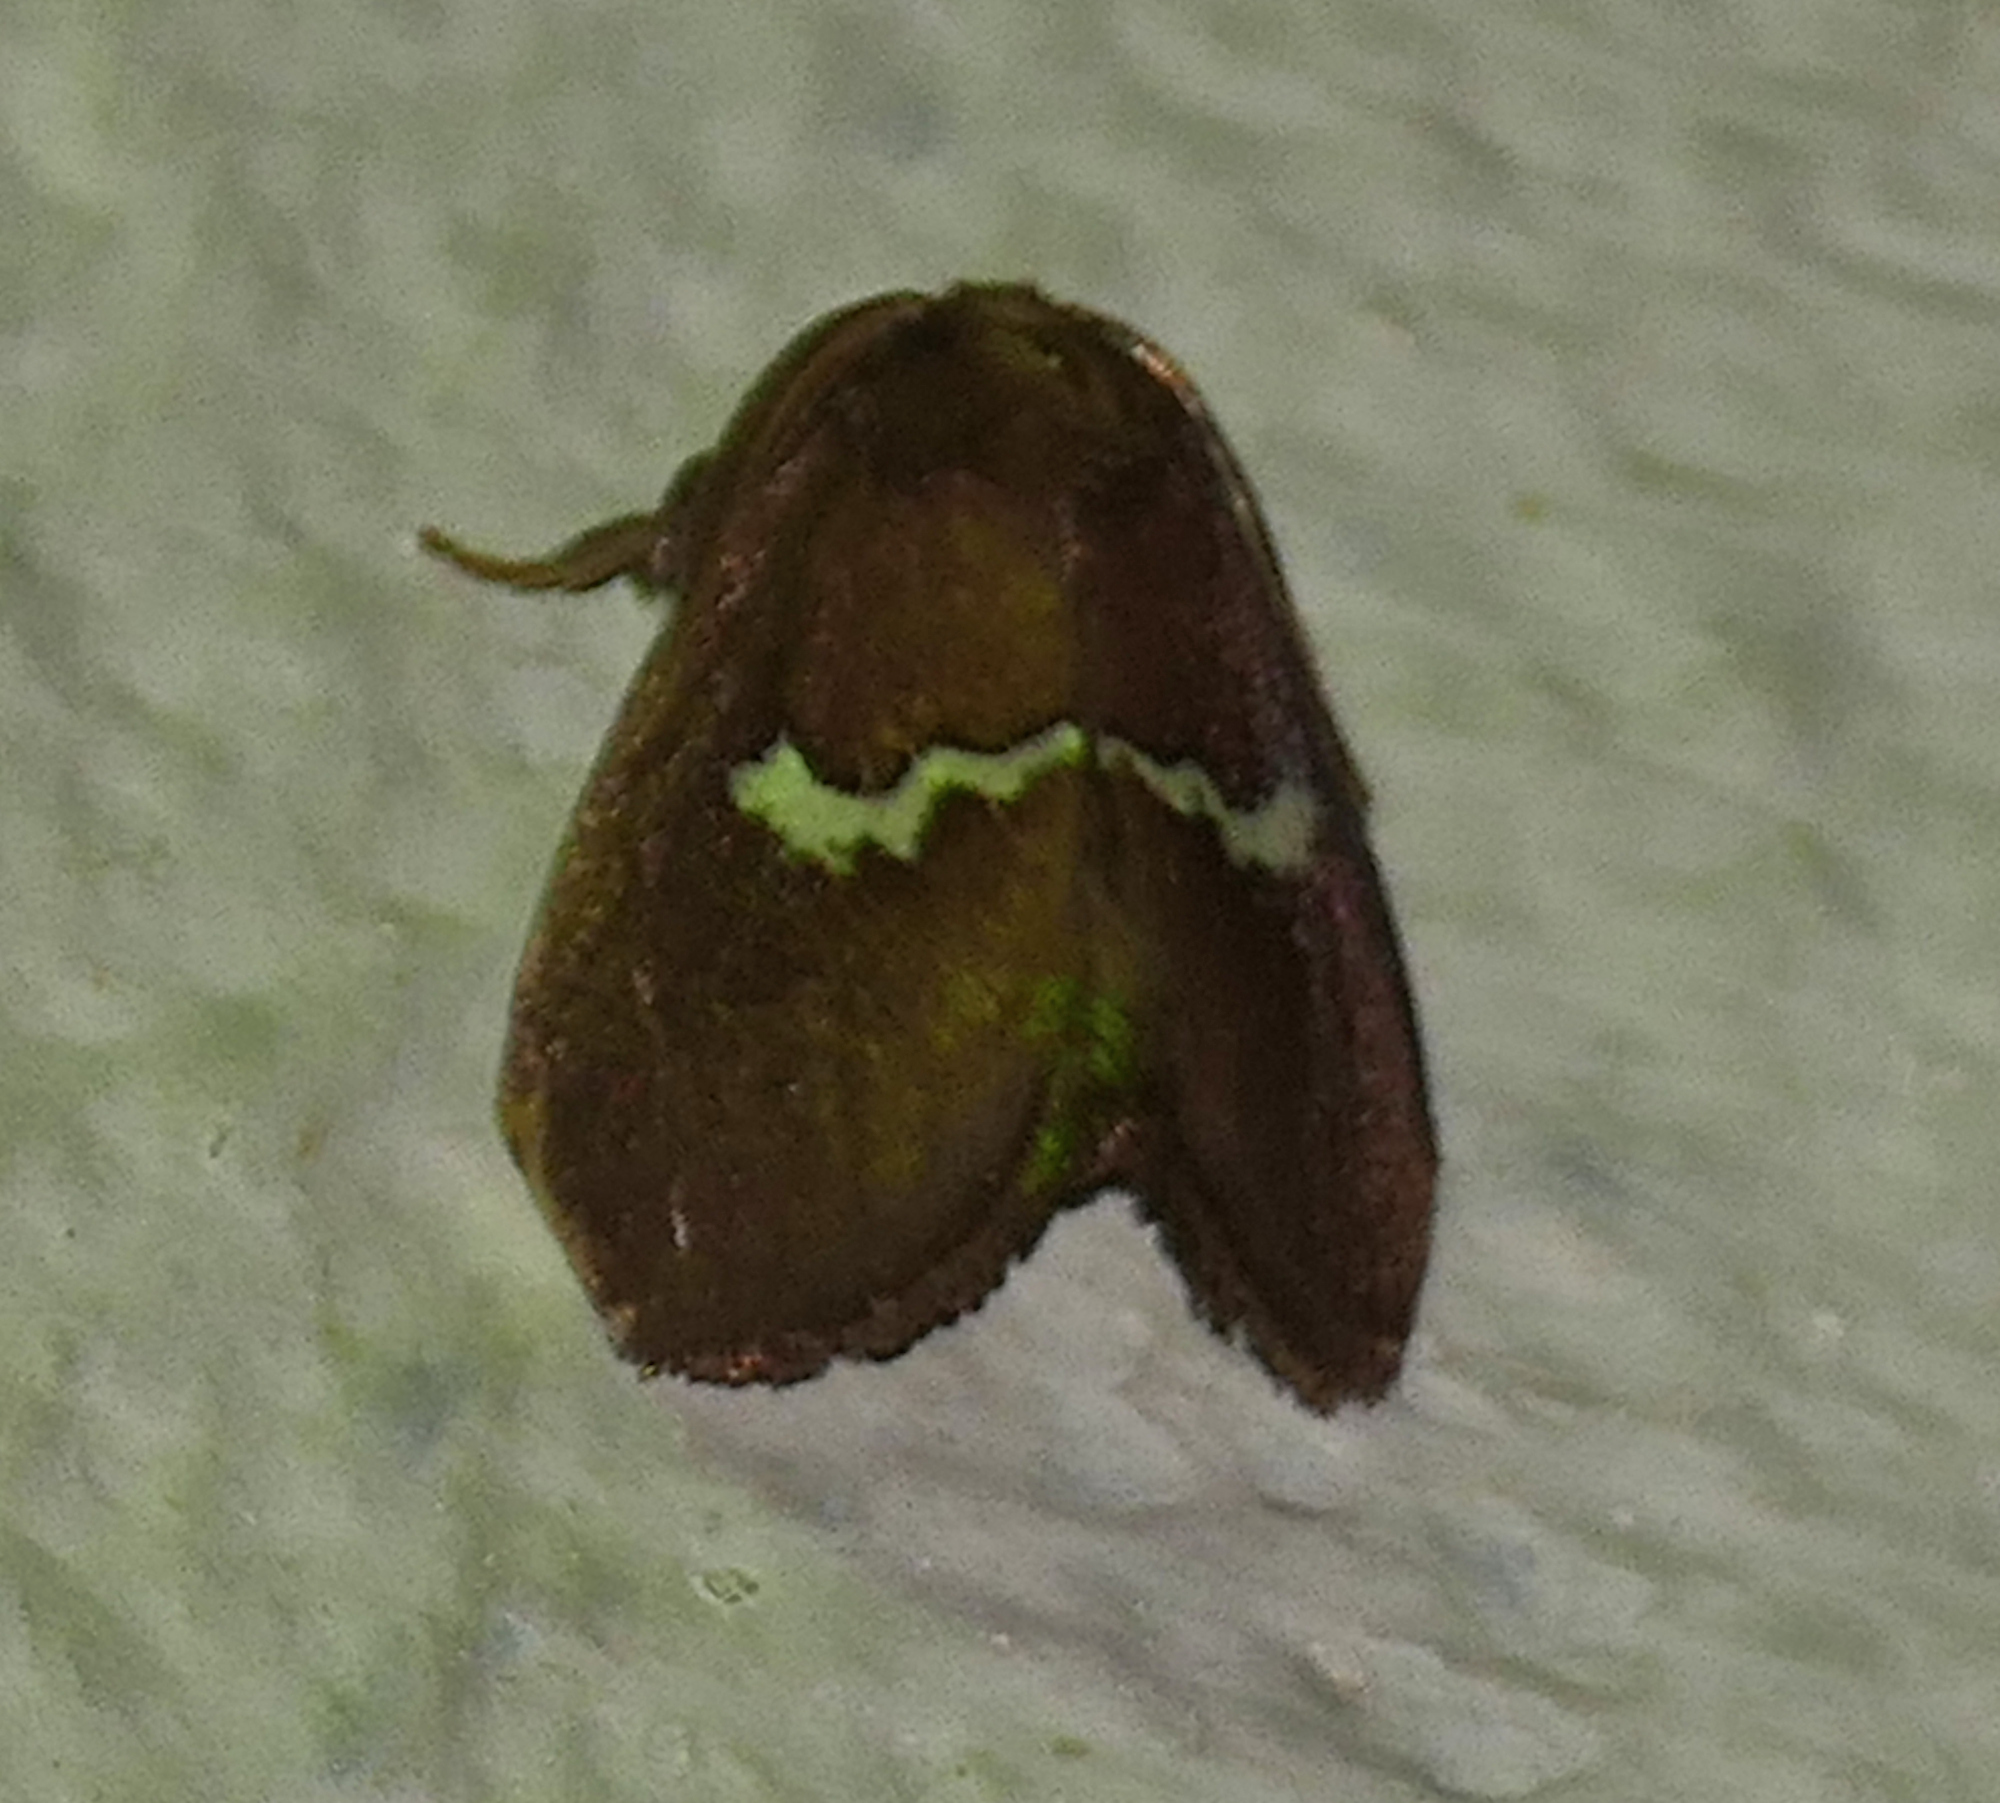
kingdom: Animalia
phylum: Arthropoda
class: Insecta
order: Lepidoptera
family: Limacodidae
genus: Monoleuca
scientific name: Monoleuca semifascia
